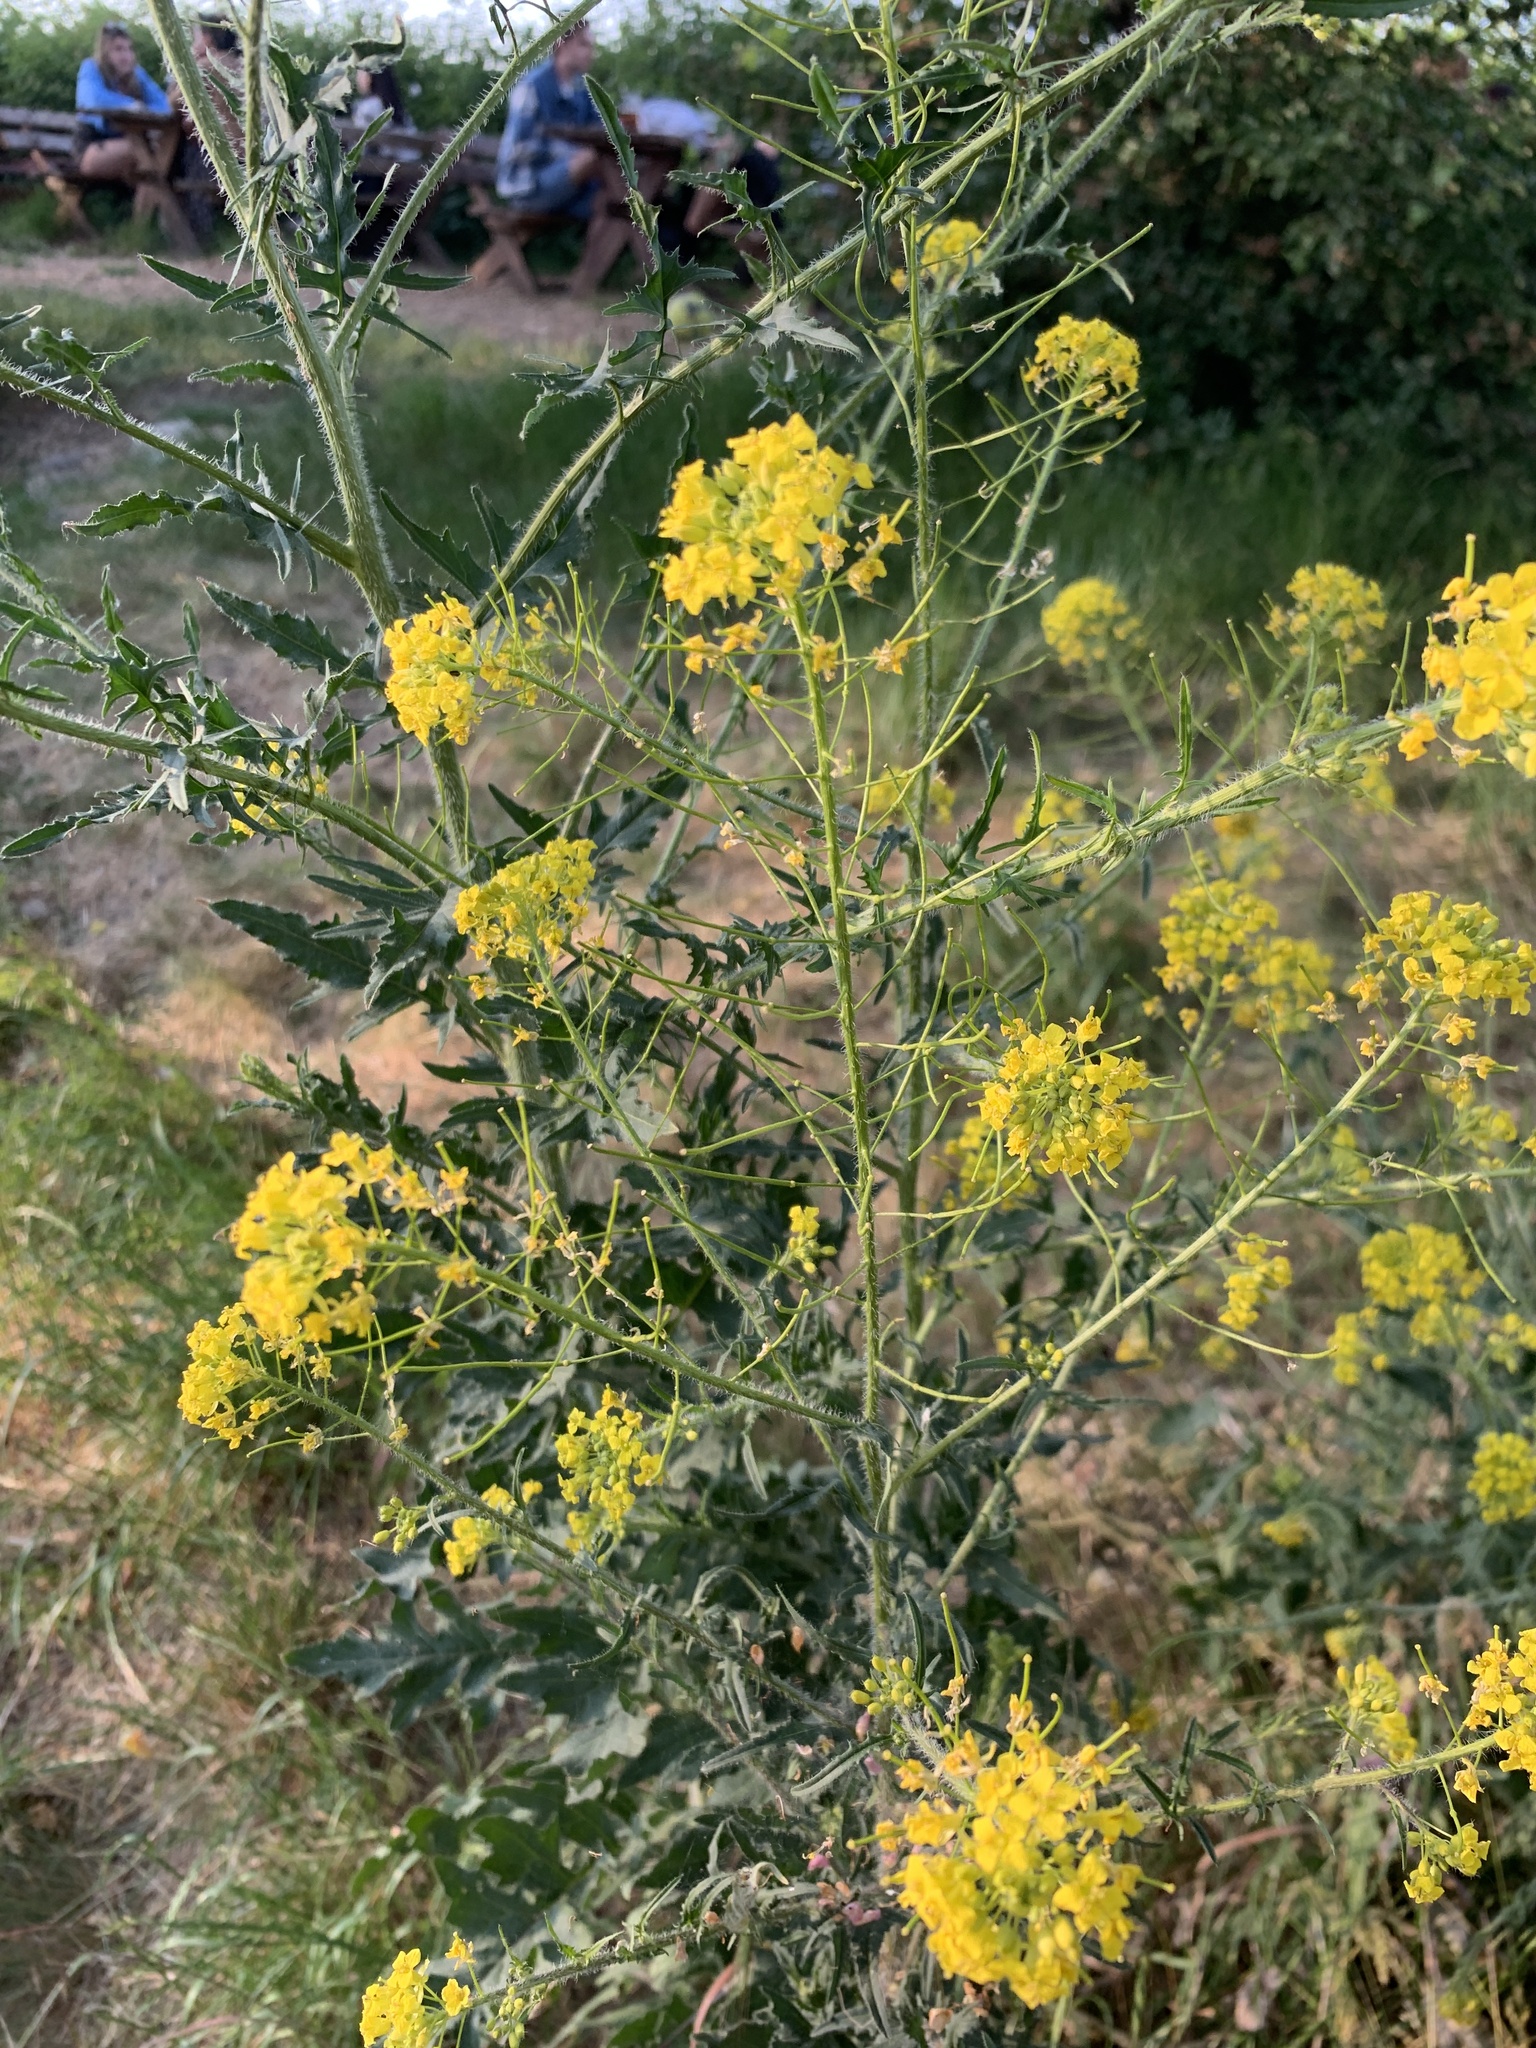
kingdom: Plantae
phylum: Tracheophyta
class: Magnoliopsida
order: Brassicales
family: Brassicaceae
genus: Sisymbrium
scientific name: Sisymbrium loeselii
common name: False london-rocket
